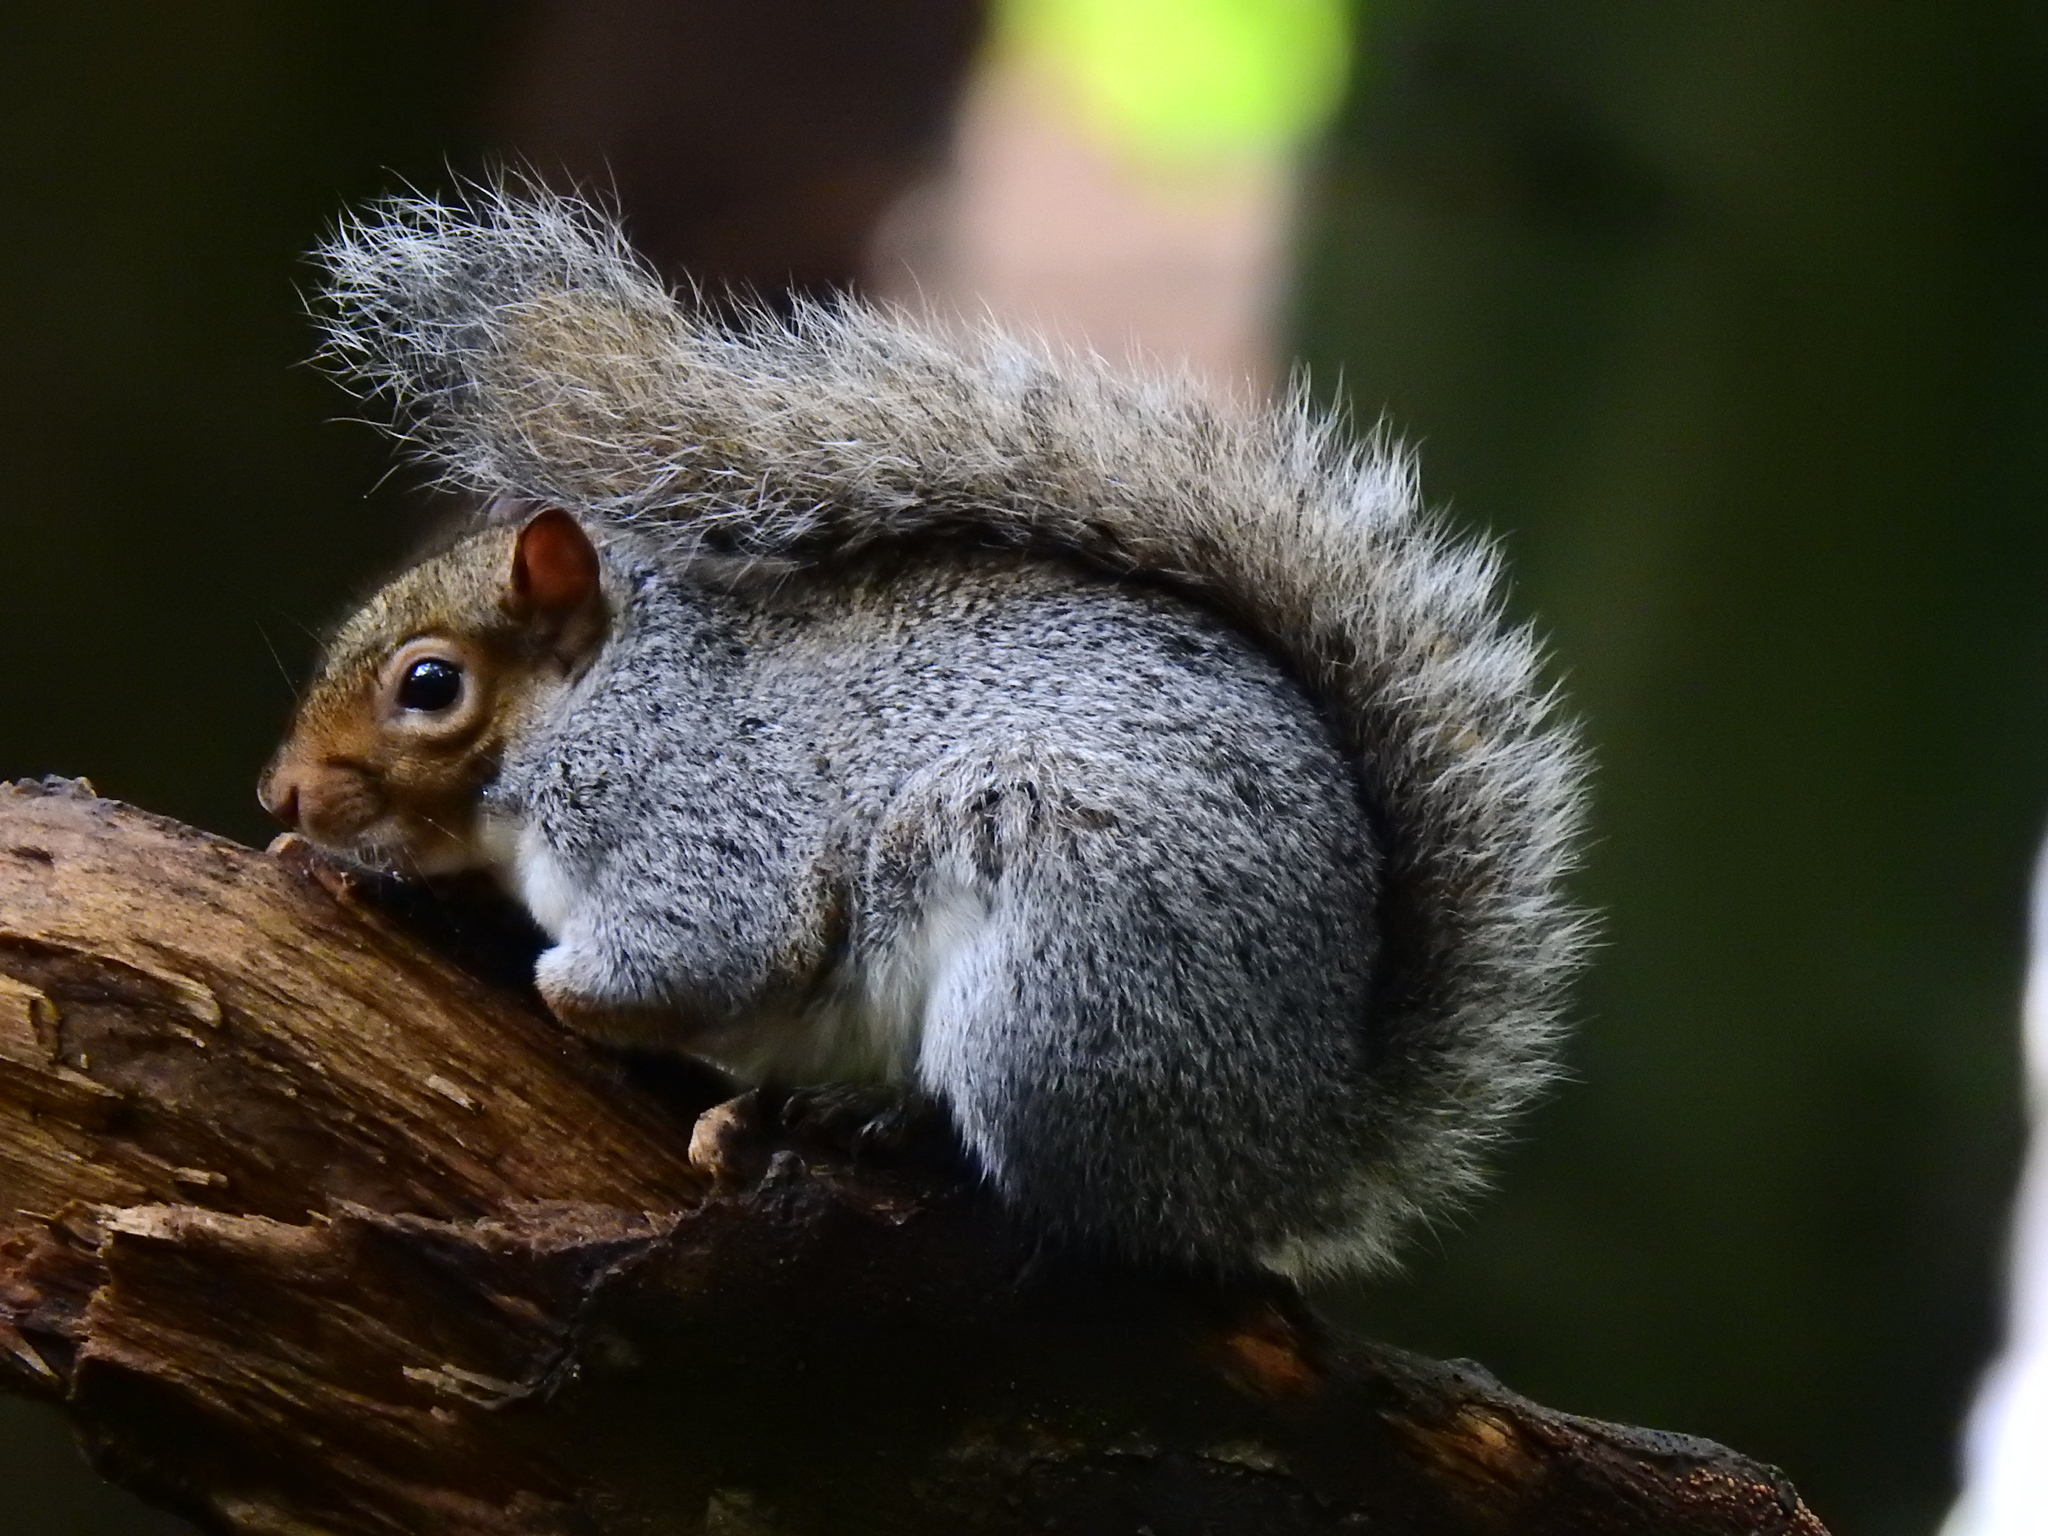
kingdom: Animalia
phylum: Chordata
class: Mammalia
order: Rodentia
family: Sciuridae
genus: Sciurus
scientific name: Sciurus carolinensis
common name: Eastern gray squirrel
